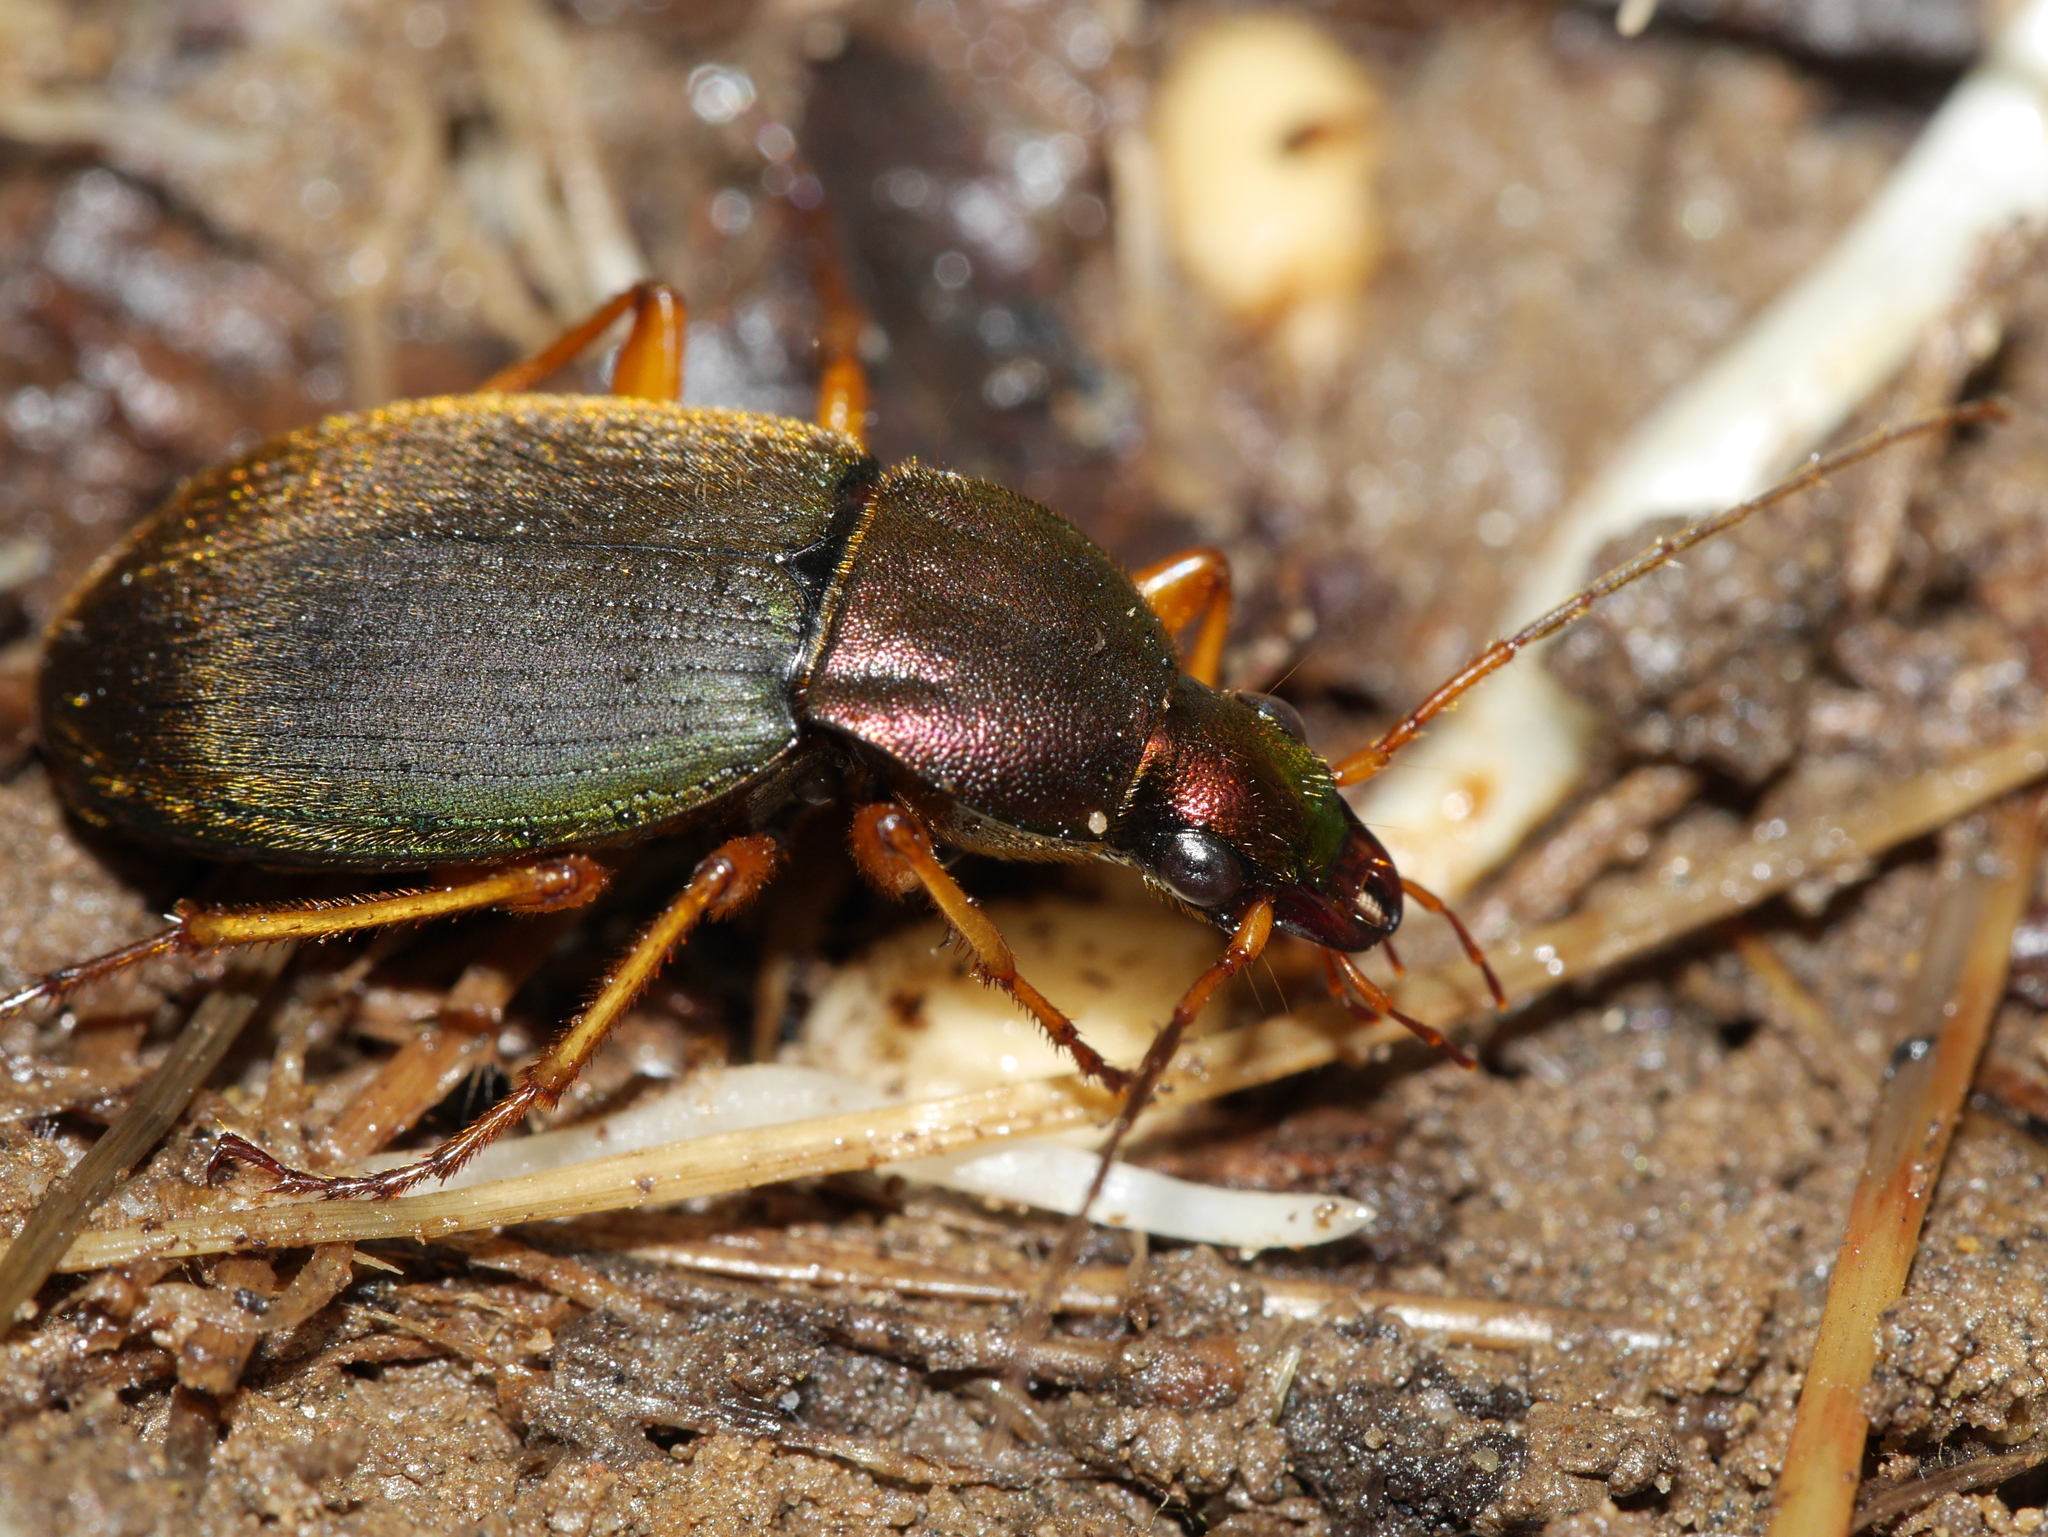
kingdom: Animalia
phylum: Arthropoda
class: Insecta
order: Coleoptera
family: Carabidae
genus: Chlaenius
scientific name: Chlaenius aestivus
